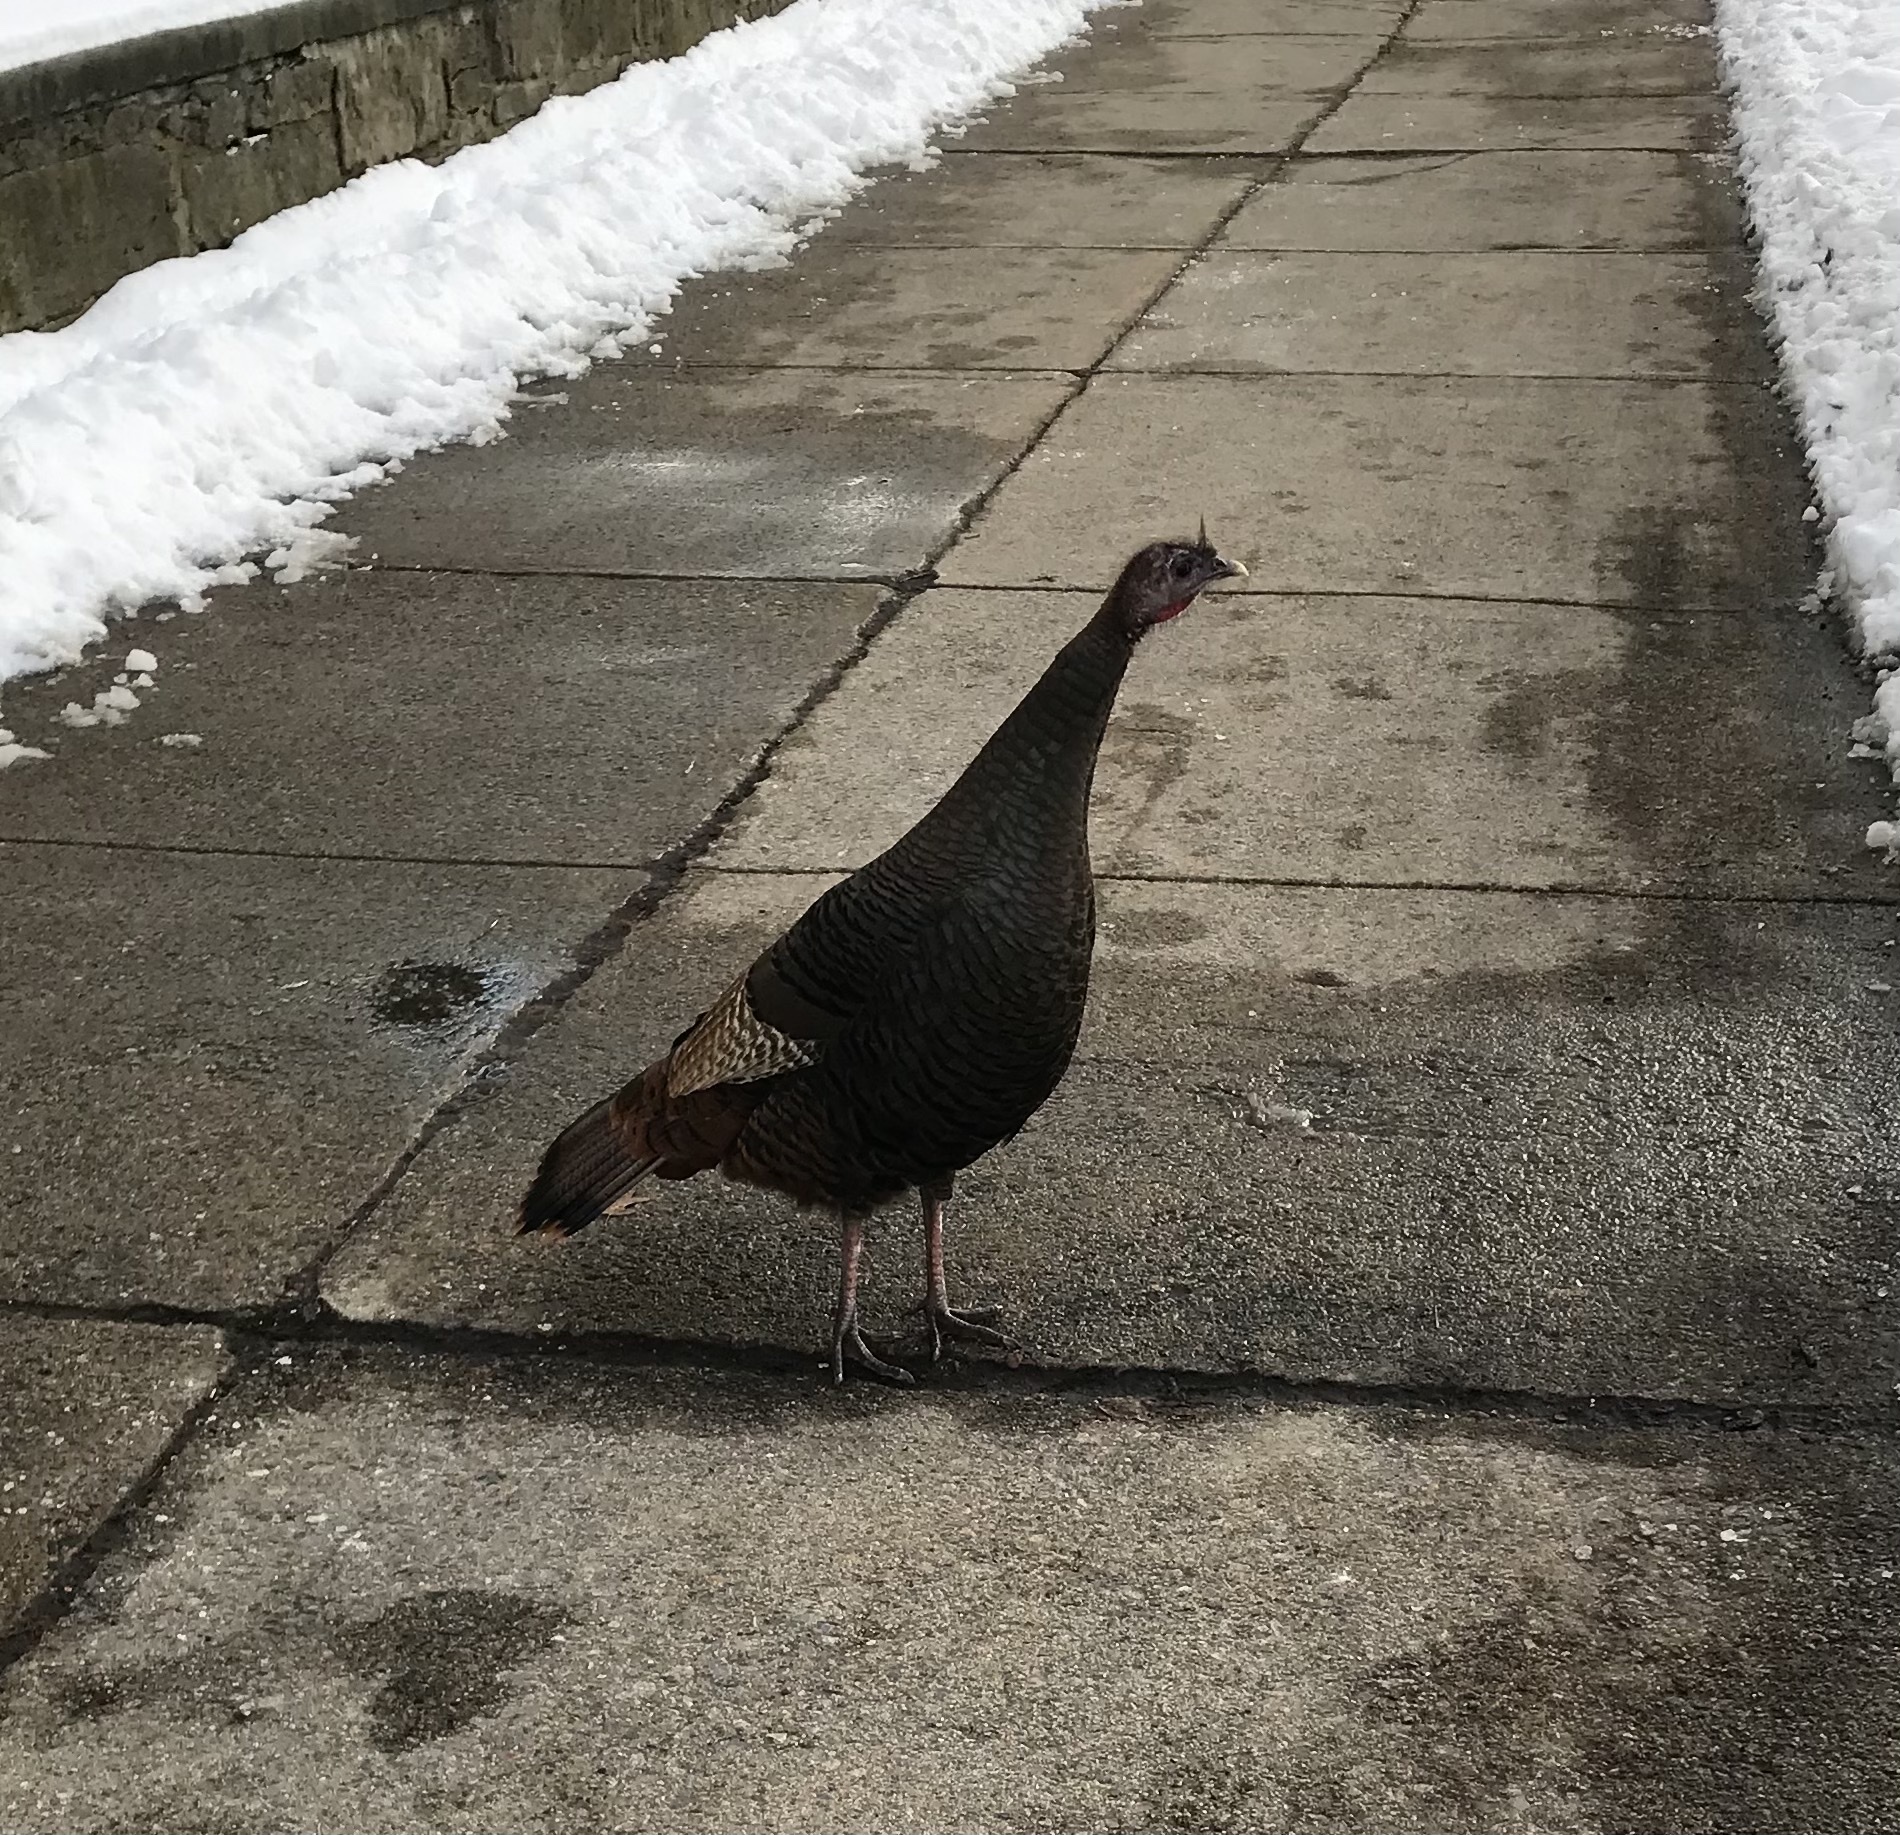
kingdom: Animalia
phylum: Chordata
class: Aves
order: Galliformes
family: Phasianidae
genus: Meleagris
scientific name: Meleagris gallopavo
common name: Wild turkey
